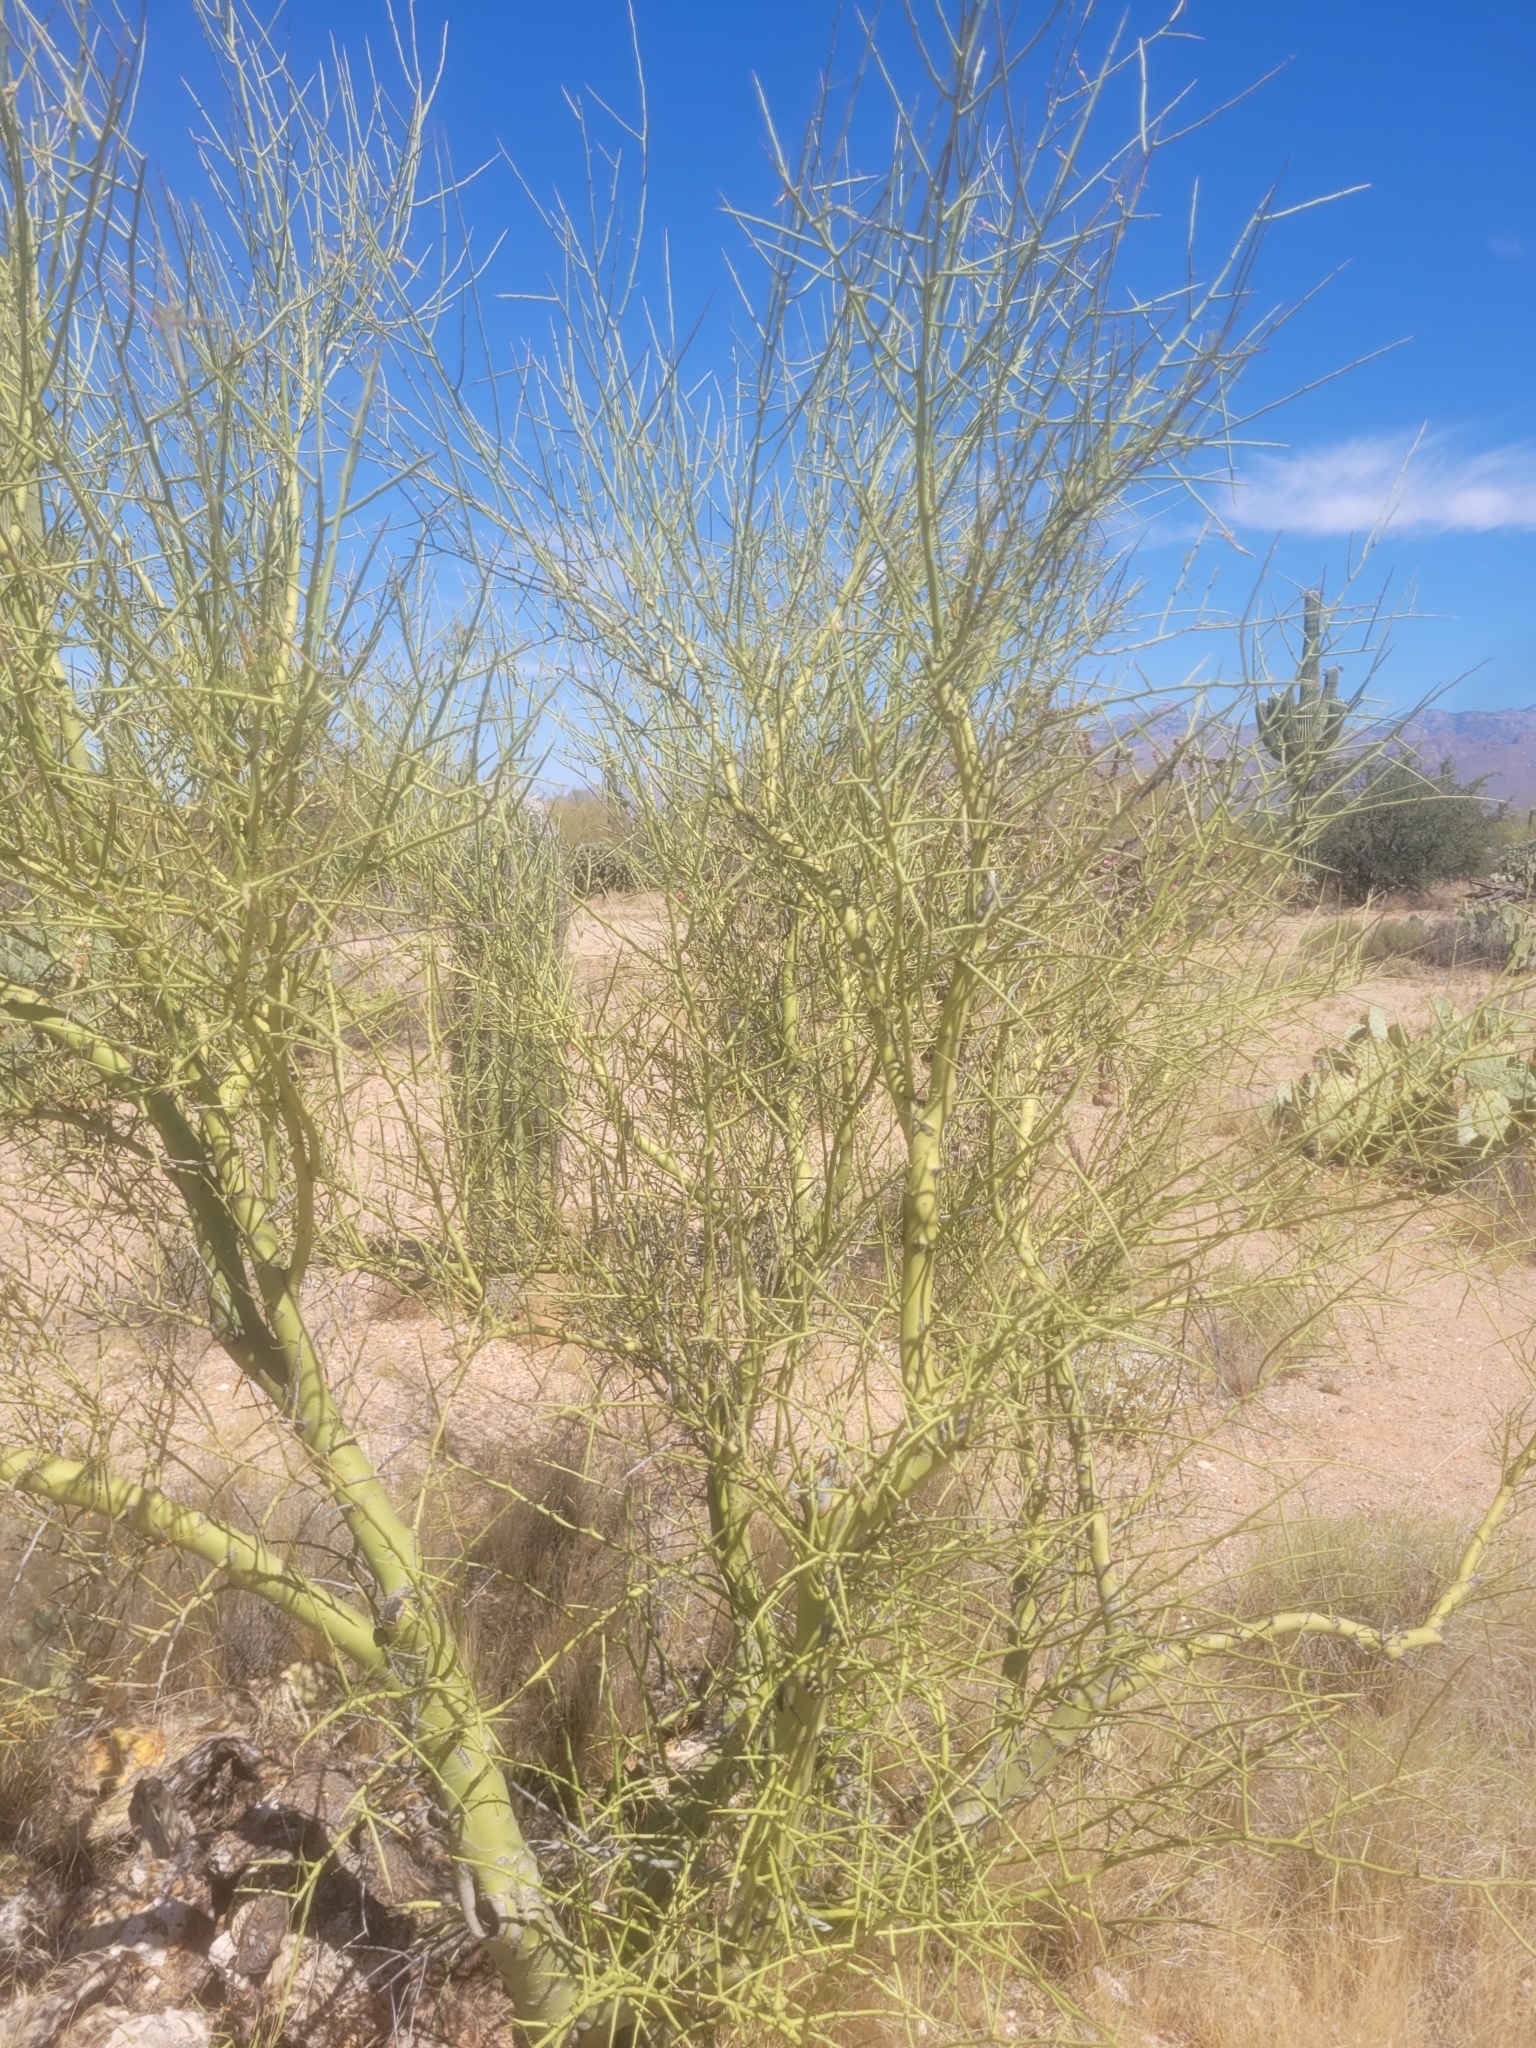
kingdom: Plantae
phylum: Tracheophyta
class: Magnoliopsida
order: Fabales
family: Fabaceae
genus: Parkinsonia
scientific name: Parkinsonia microphylla
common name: Yellow paloverde
